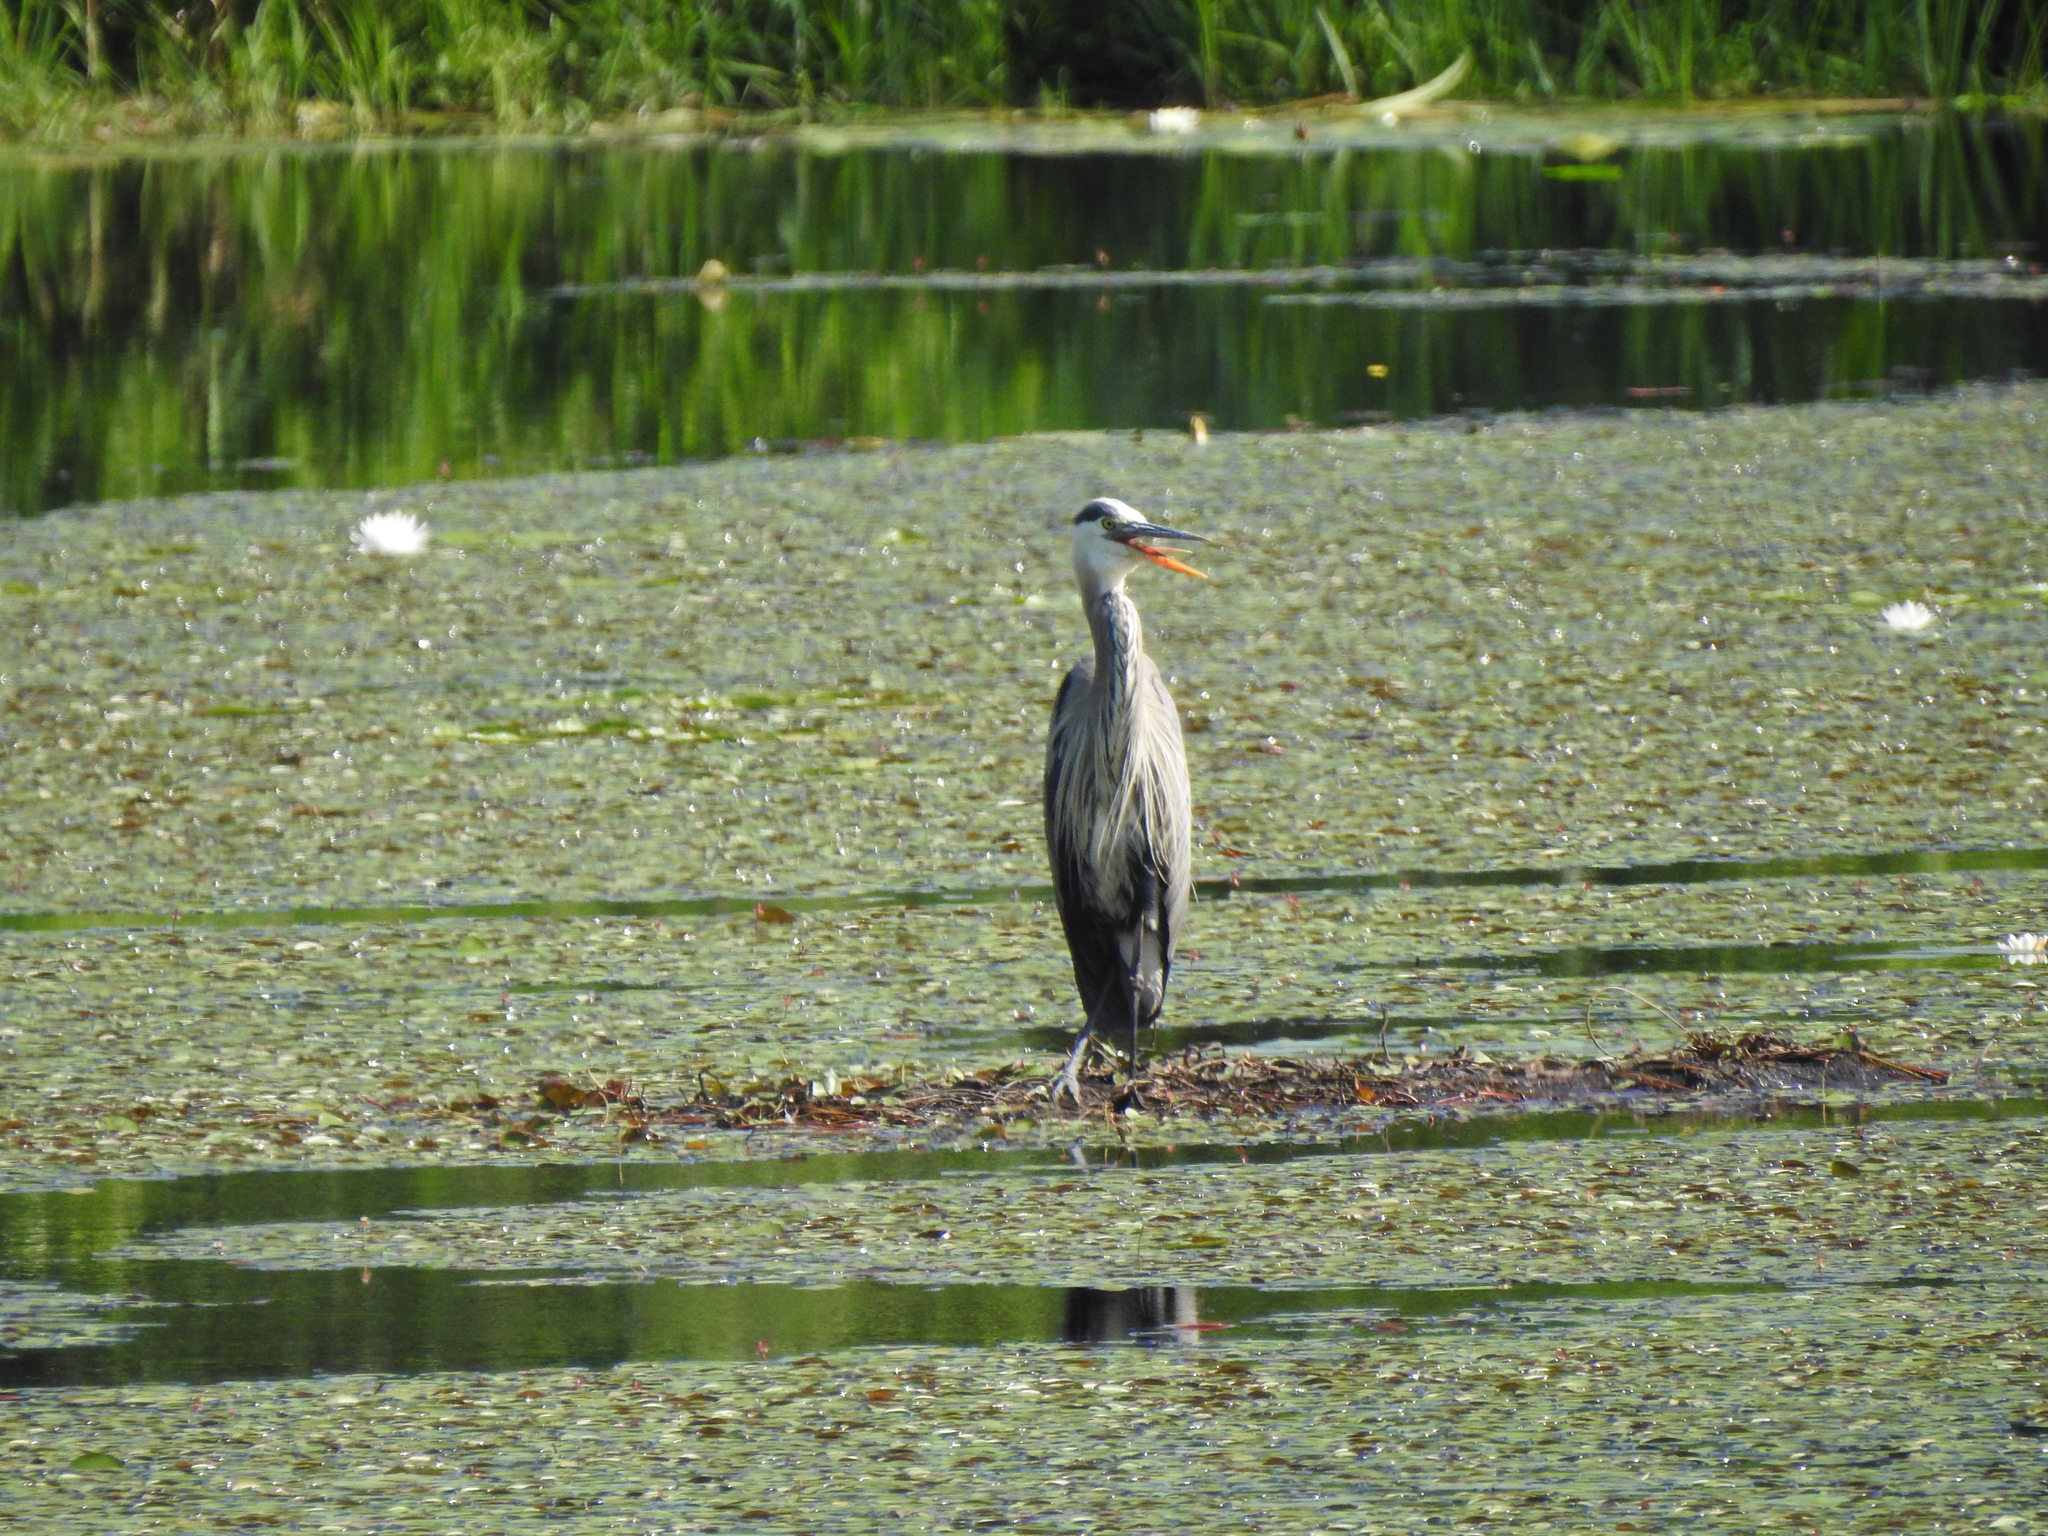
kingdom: Animalia
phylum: Chordata
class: Aves
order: Pelecaniformes
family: Ardeidae
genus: Ardea
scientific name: Ardea herodias
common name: Great blue heron
